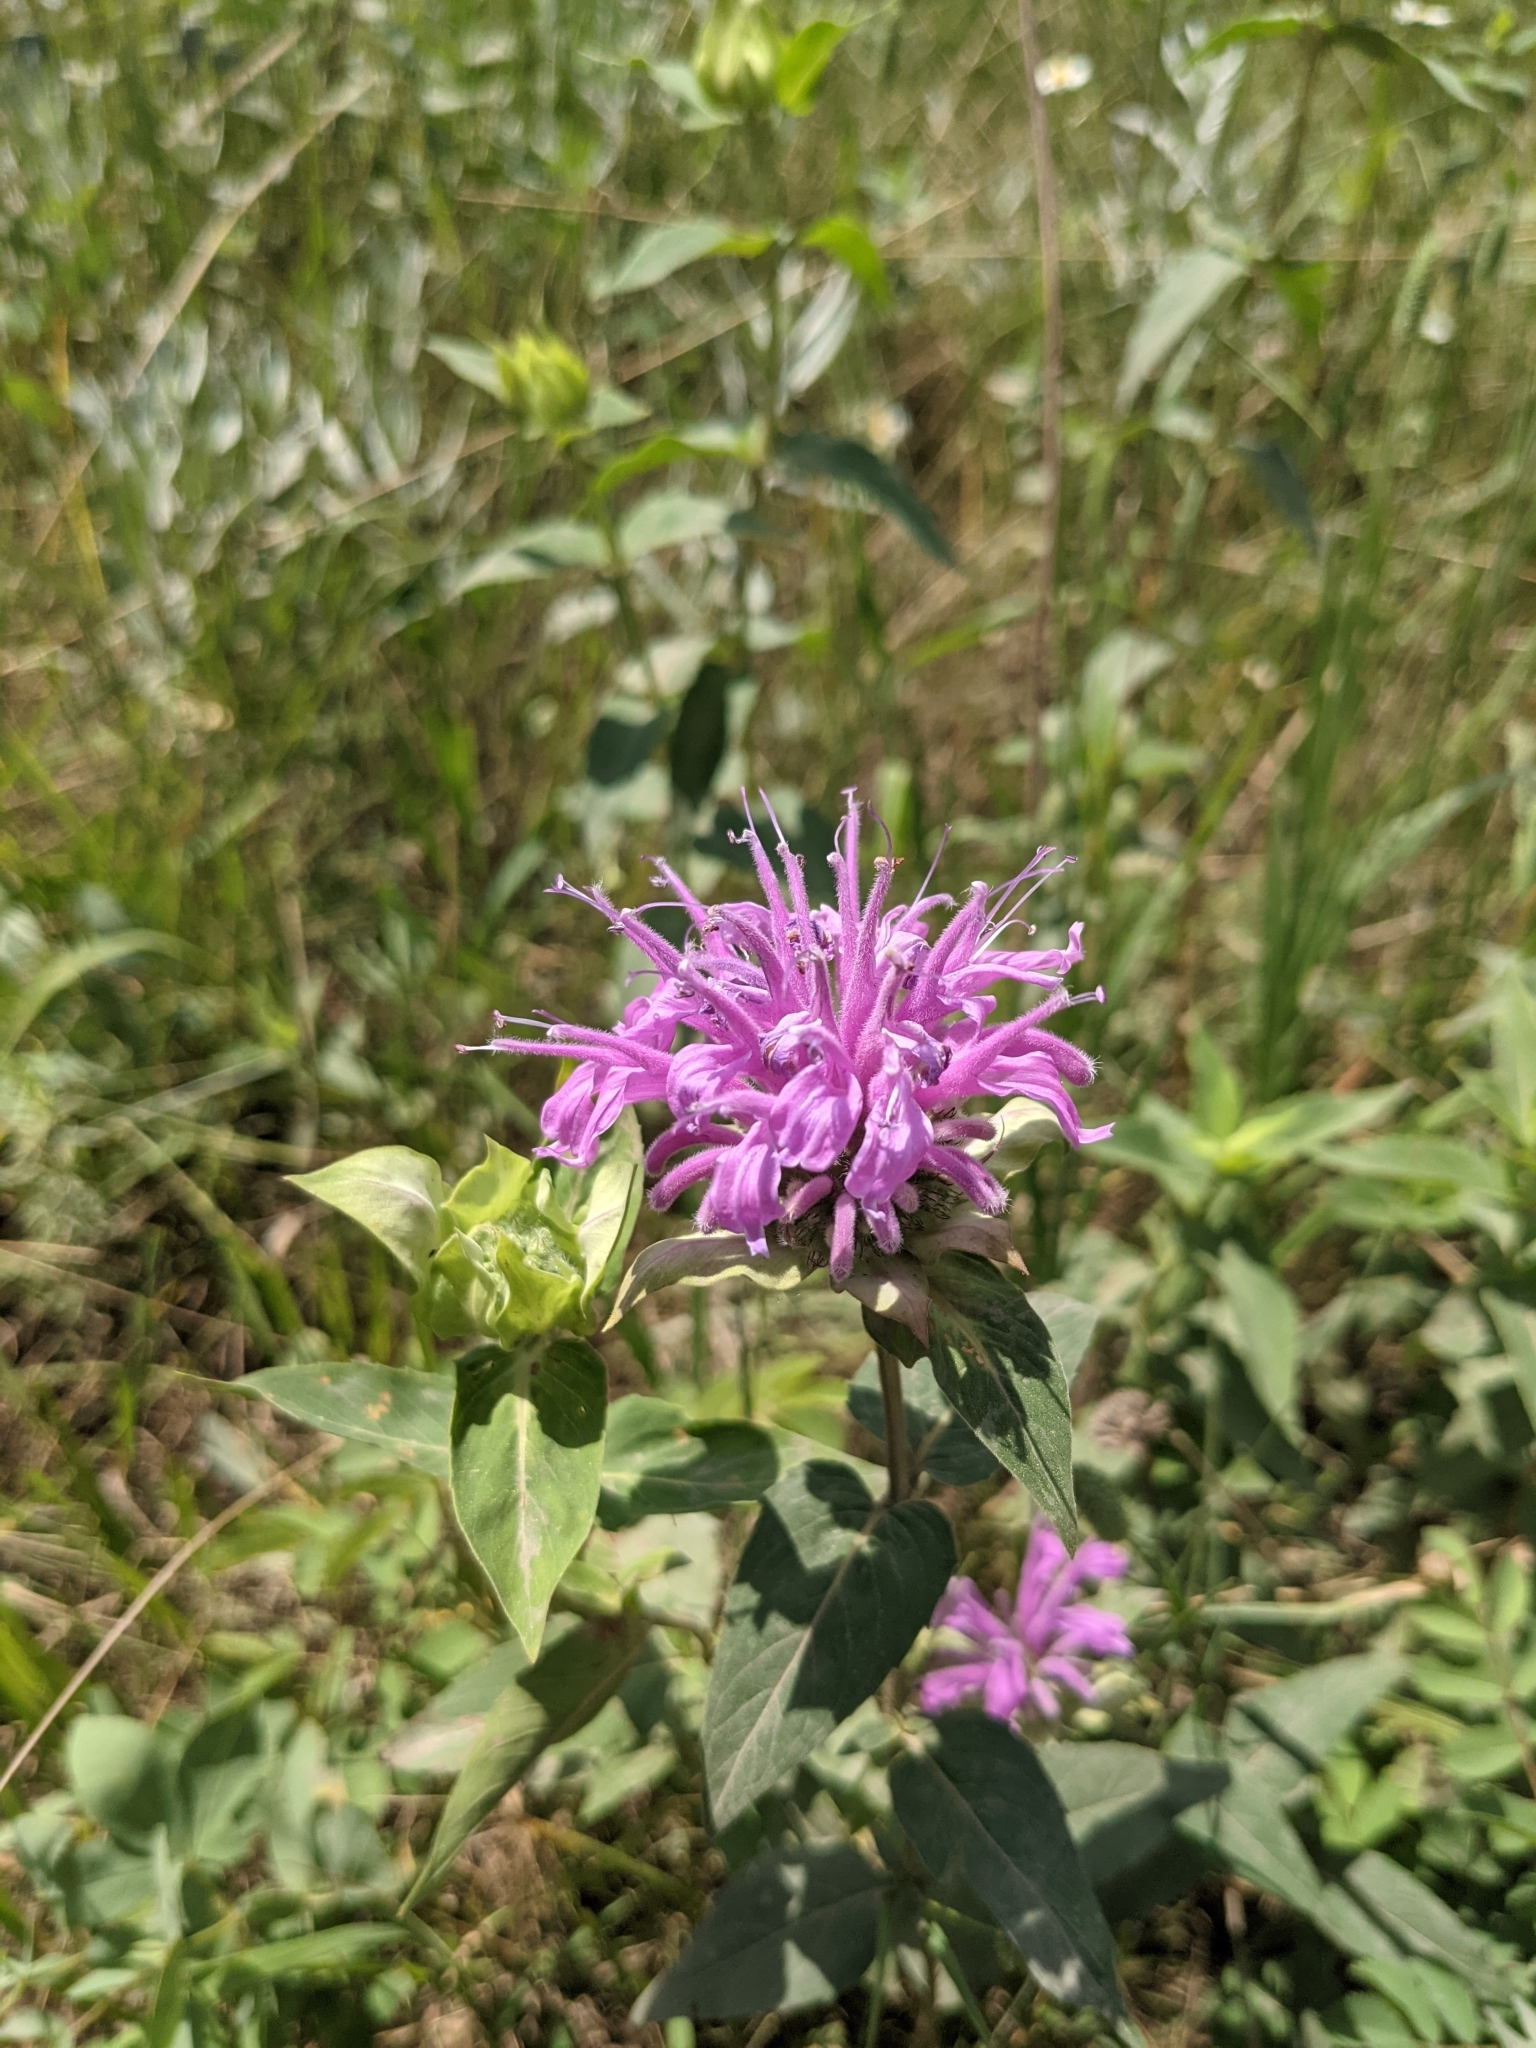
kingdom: Plantae
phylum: Tracheophyta
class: Magnoliopsida
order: Lamiales
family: Lamiaceae
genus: Monarda
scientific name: Monarda fistulosa
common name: Purple beebalm
